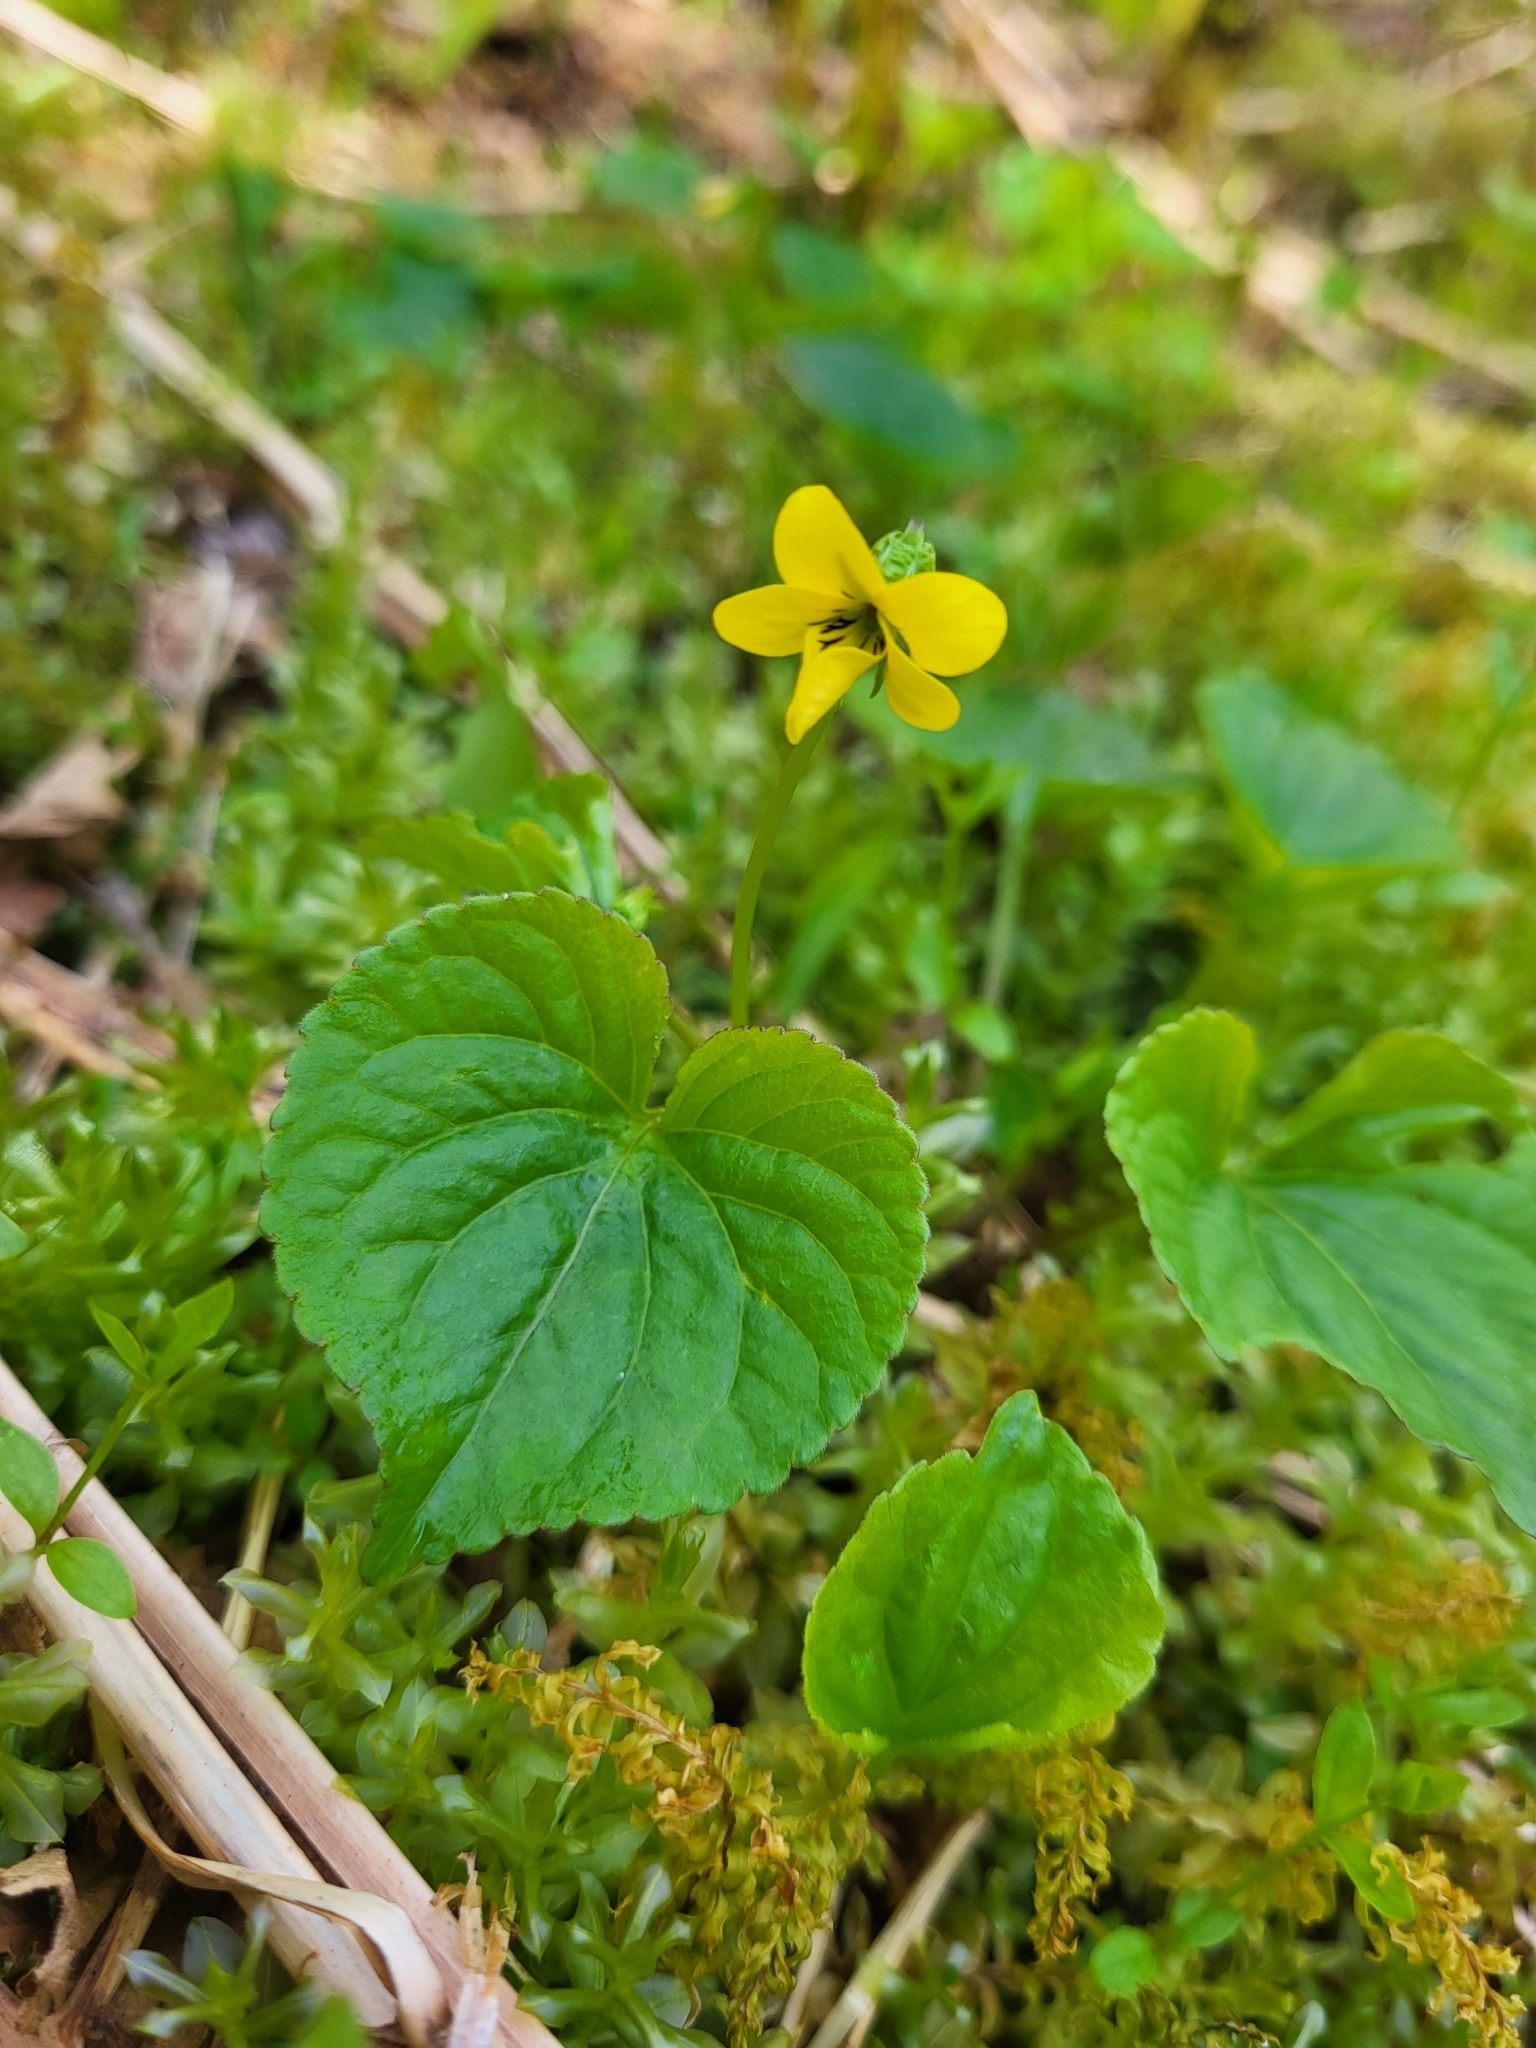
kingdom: Plantae
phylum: Tracheophyta
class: Magnoliopsida
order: Malpighiales
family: Violaceae
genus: Viola
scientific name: Viola glabella
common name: Stream violet
